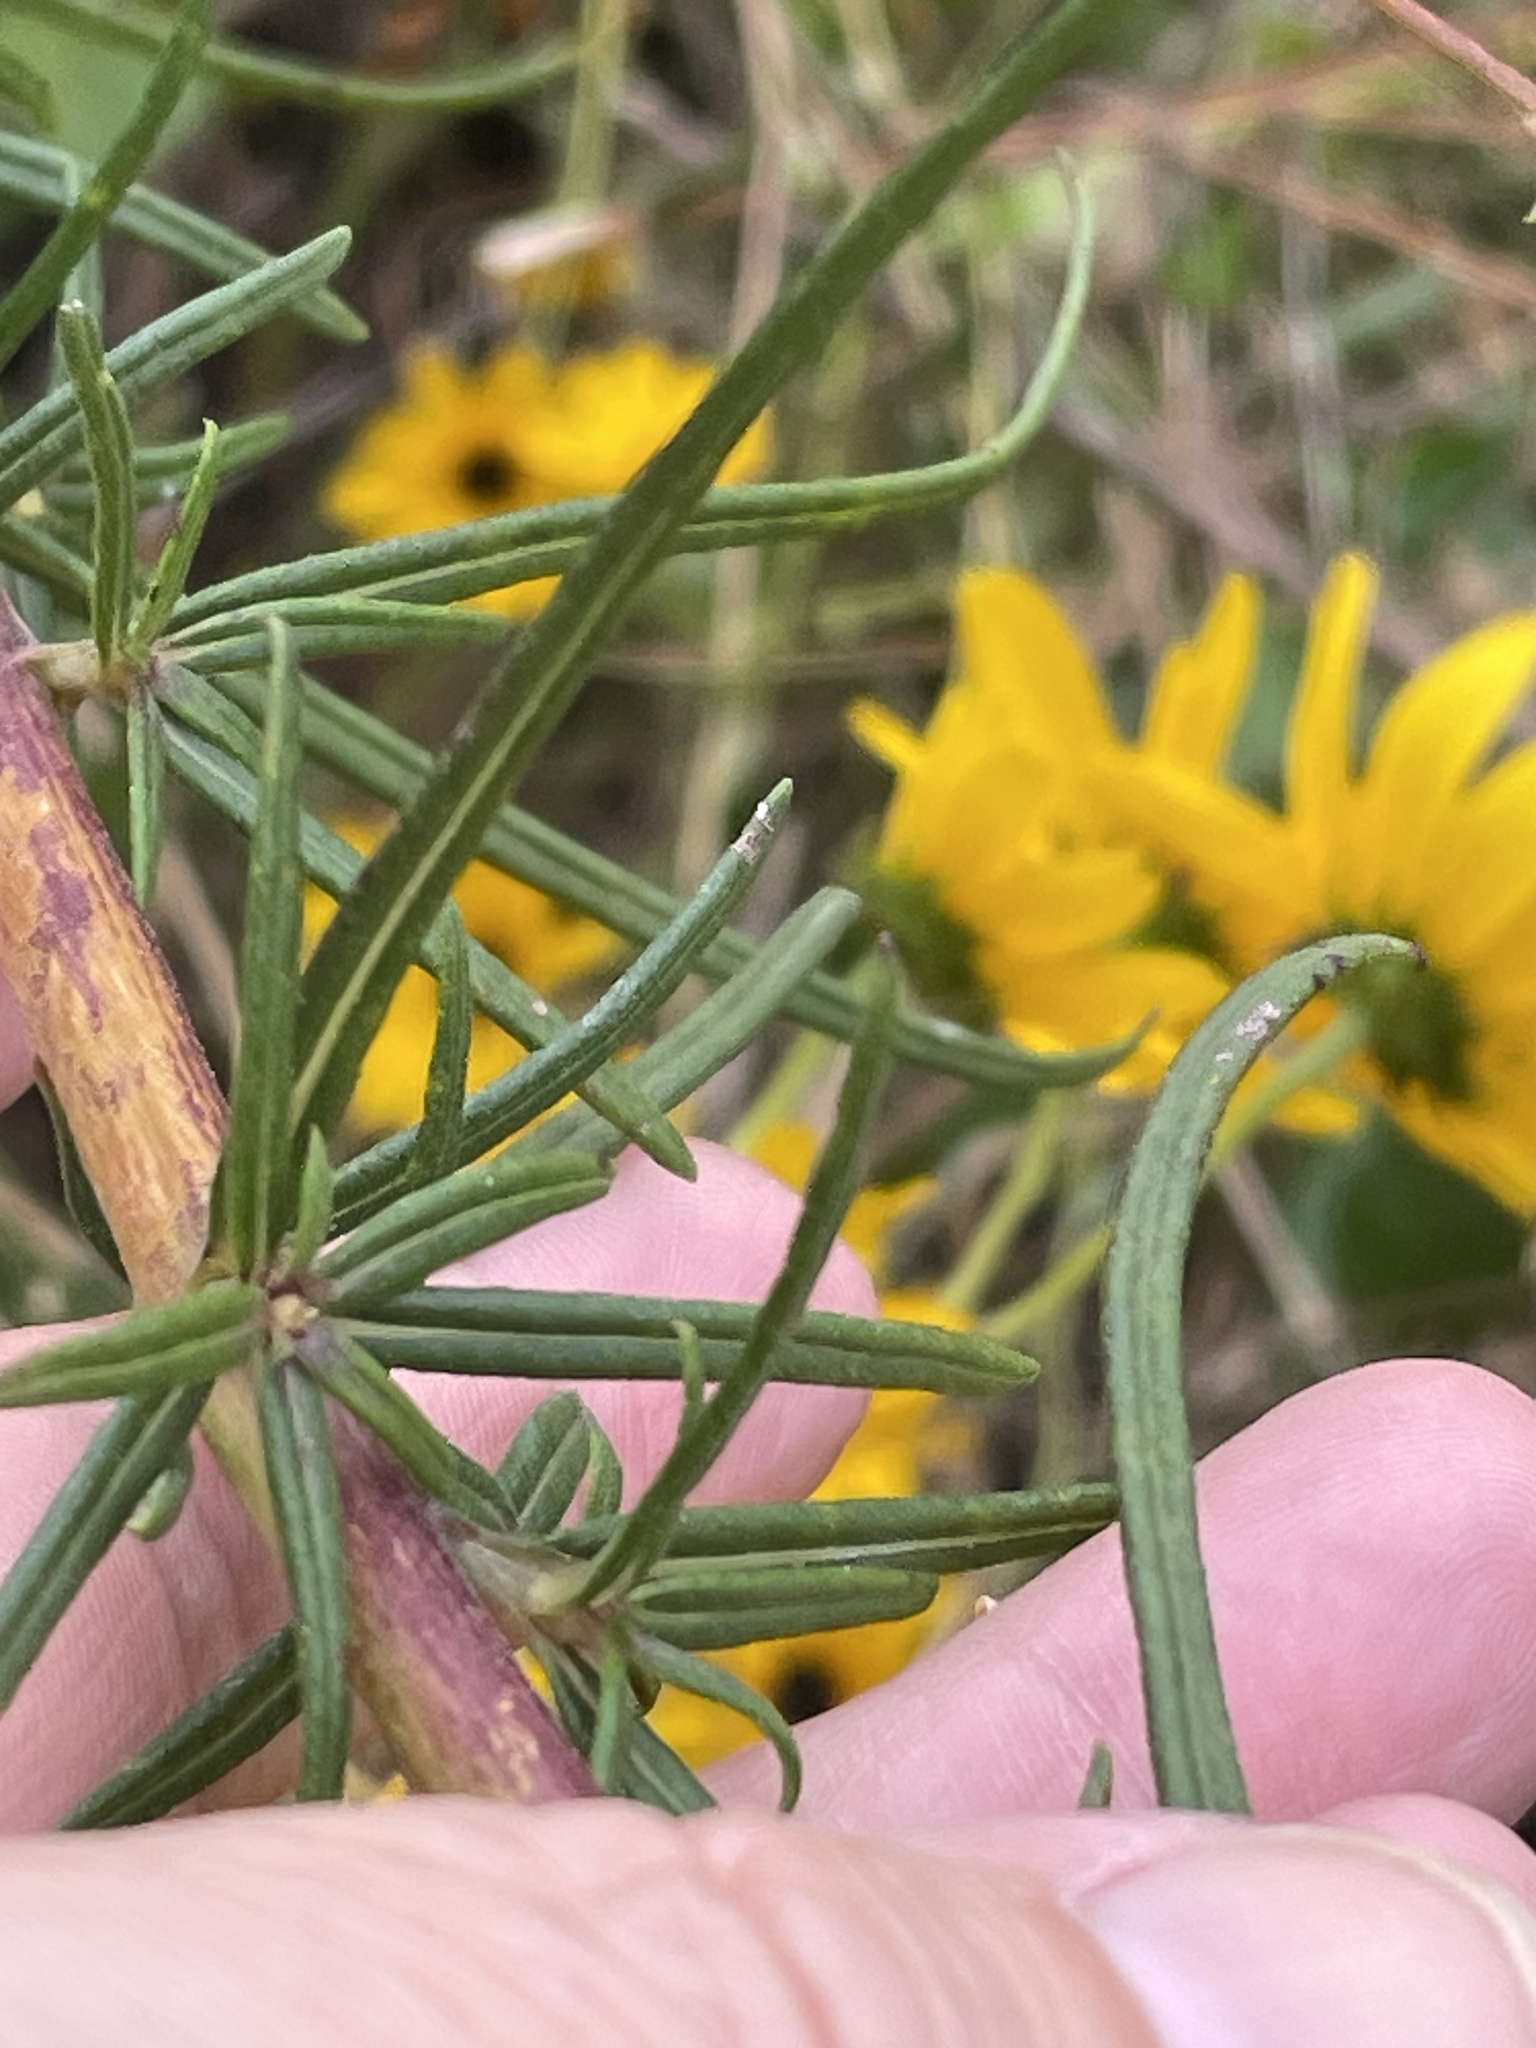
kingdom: Plantae
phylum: Tracheophyta
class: Magnoliopsida
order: Asterales
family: Asteraceae
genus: Helianthus
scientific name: Helianthus angustifolius
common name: Swamp sunflower
